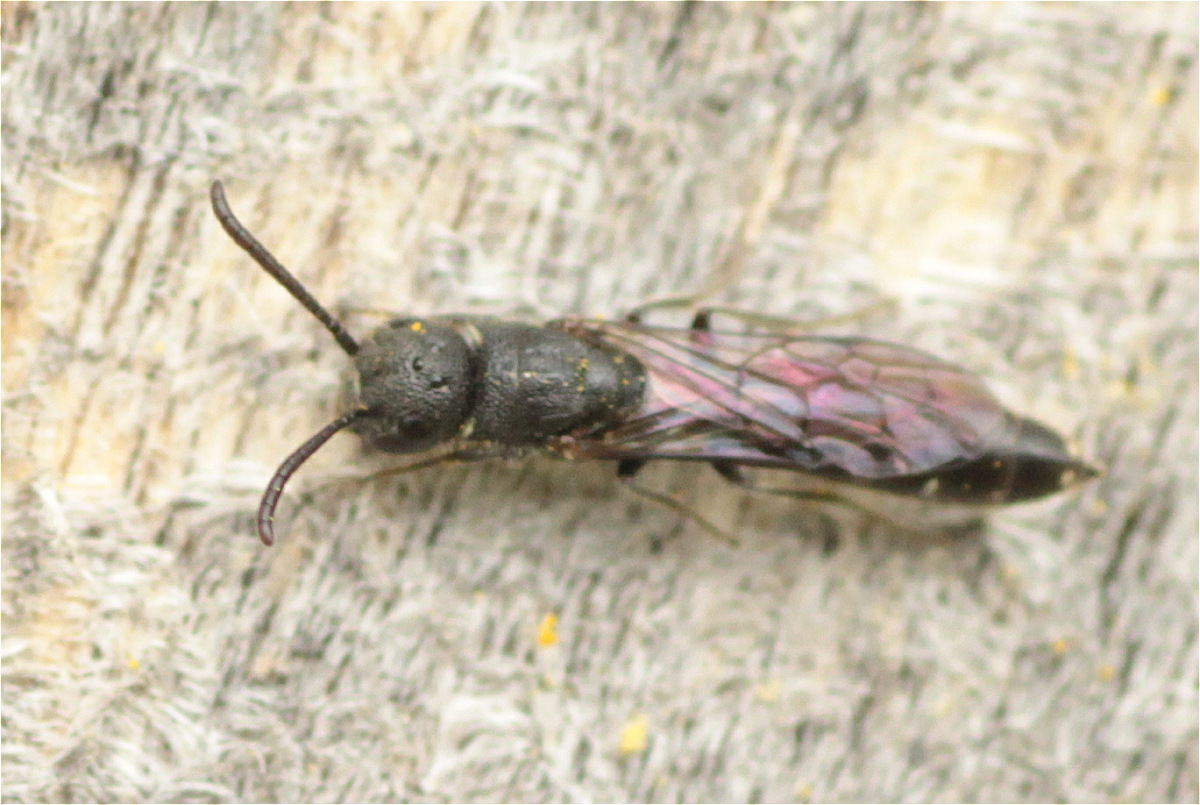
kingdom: Animalia
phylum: Arthropoda
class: Insecta
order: Hymenoptera
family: Sapygidae
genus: Sapygina
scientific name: Sapygina decemguttata
